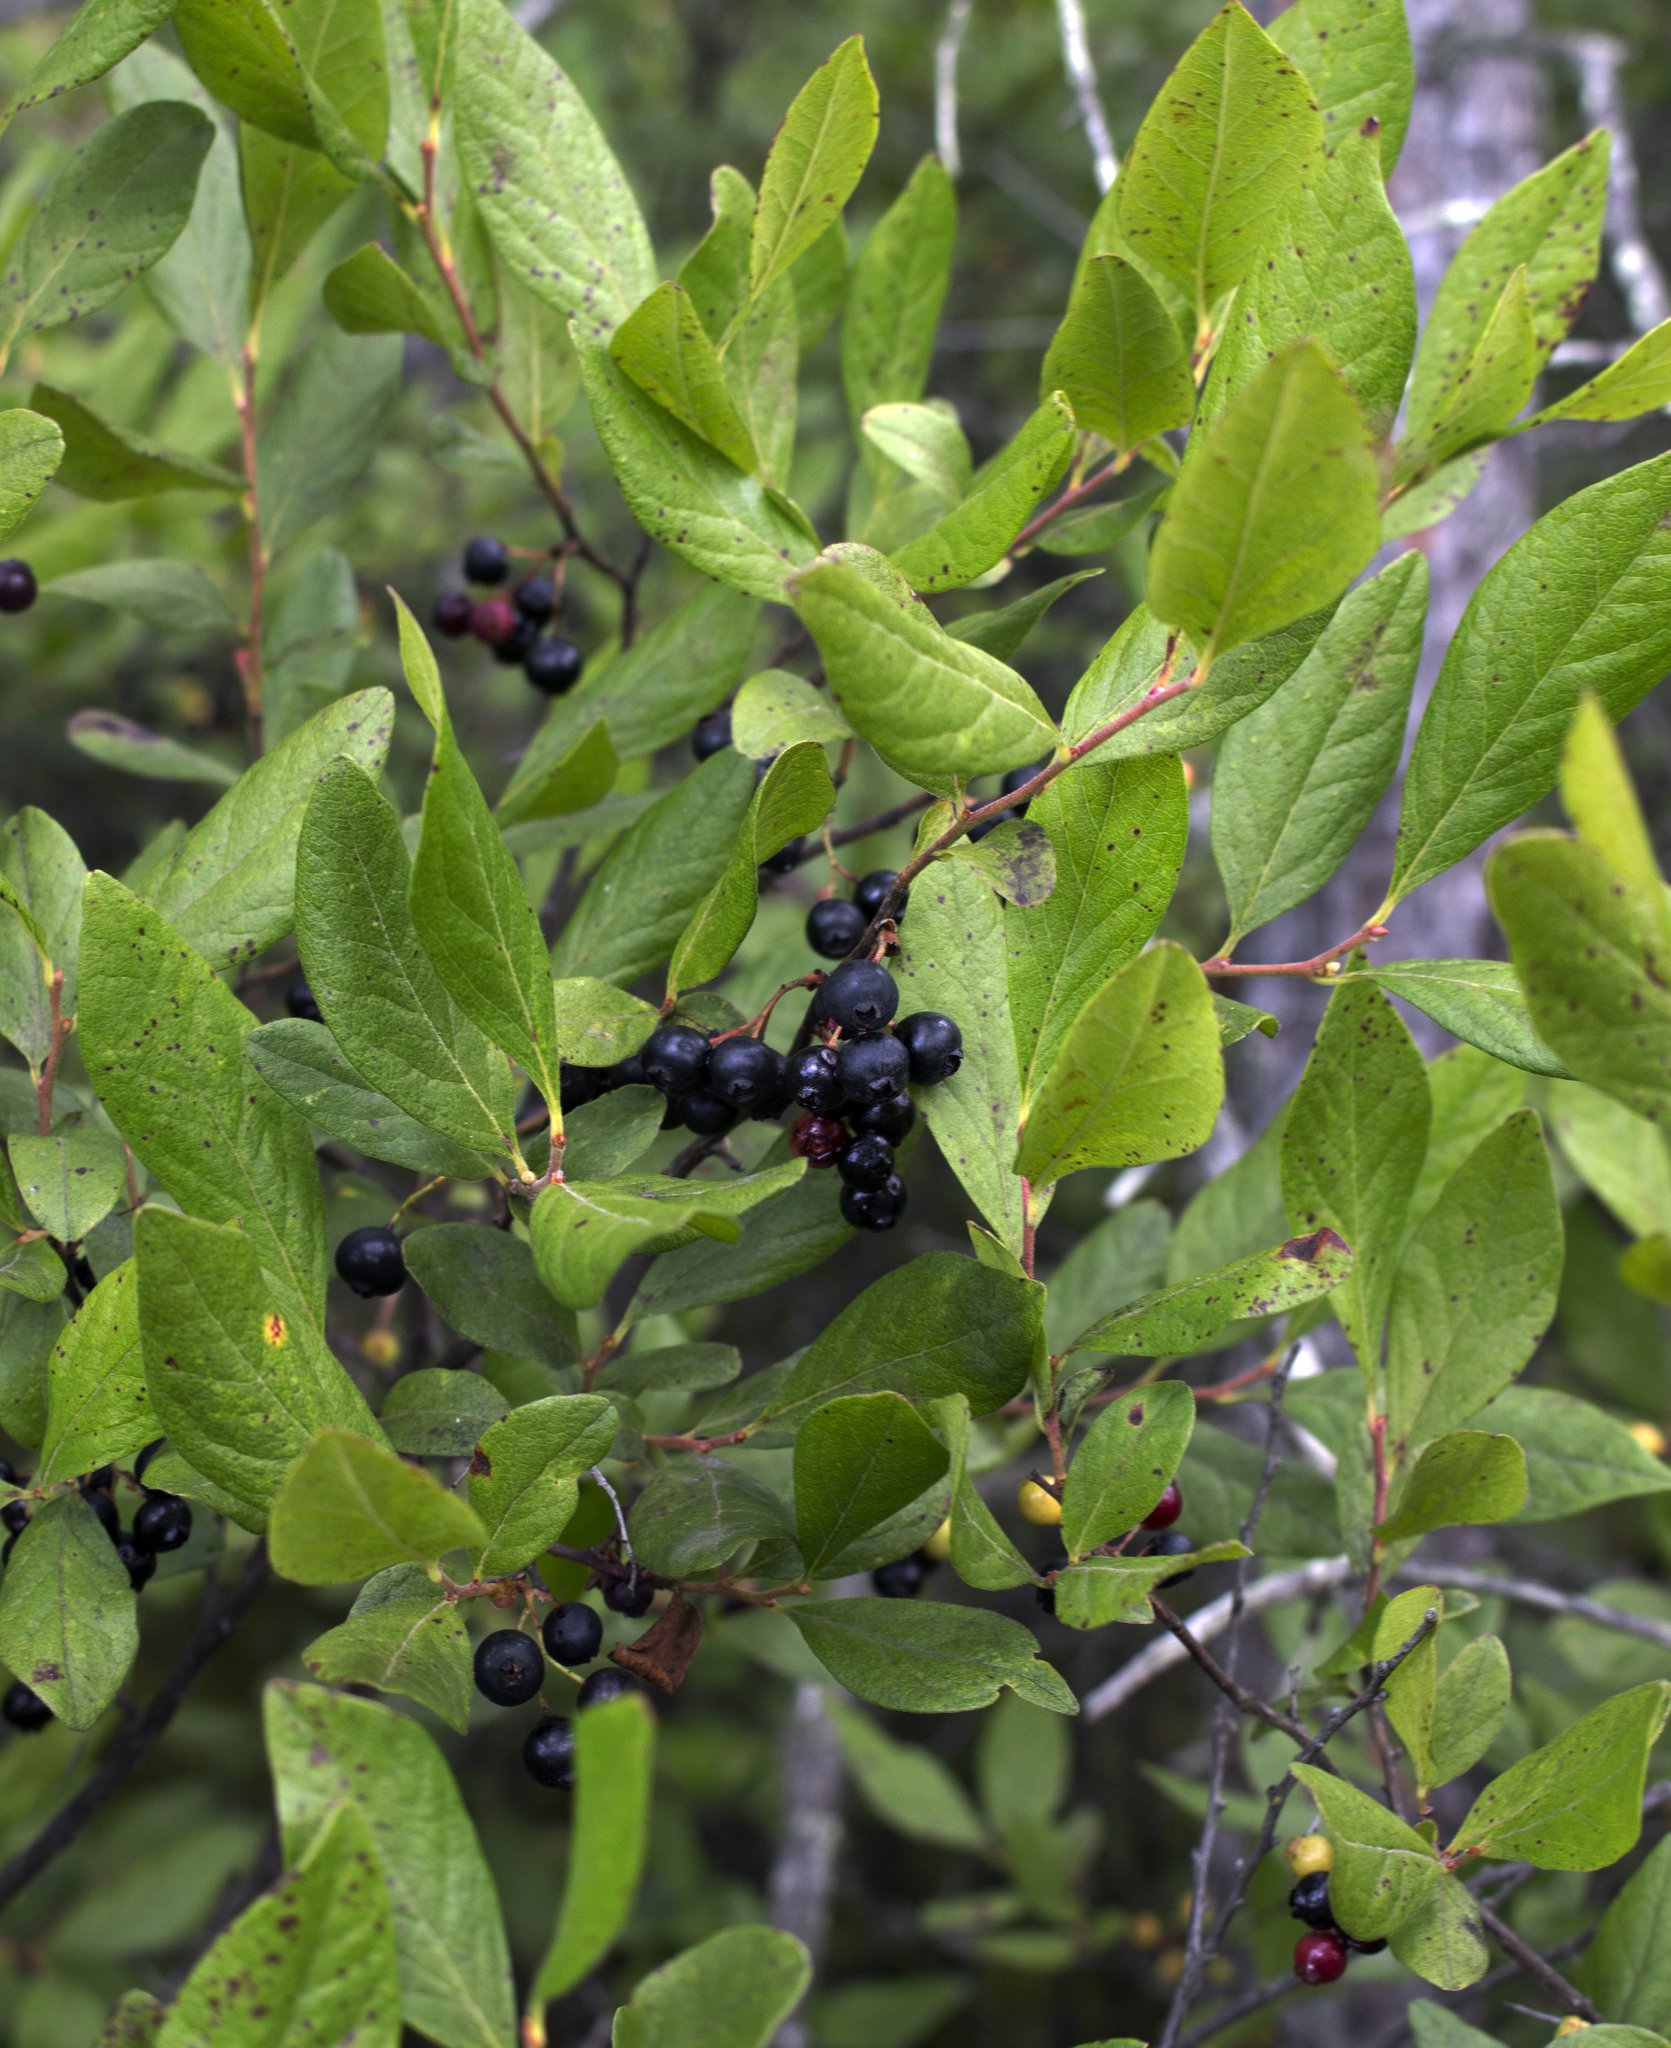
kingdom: Plantae
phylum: Tracheophyta
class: Magnoliopsida
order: Ericales
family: Ericaceae
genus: Gaylussacia
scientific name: Gaylussacia baccata
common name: Black huckleberry
